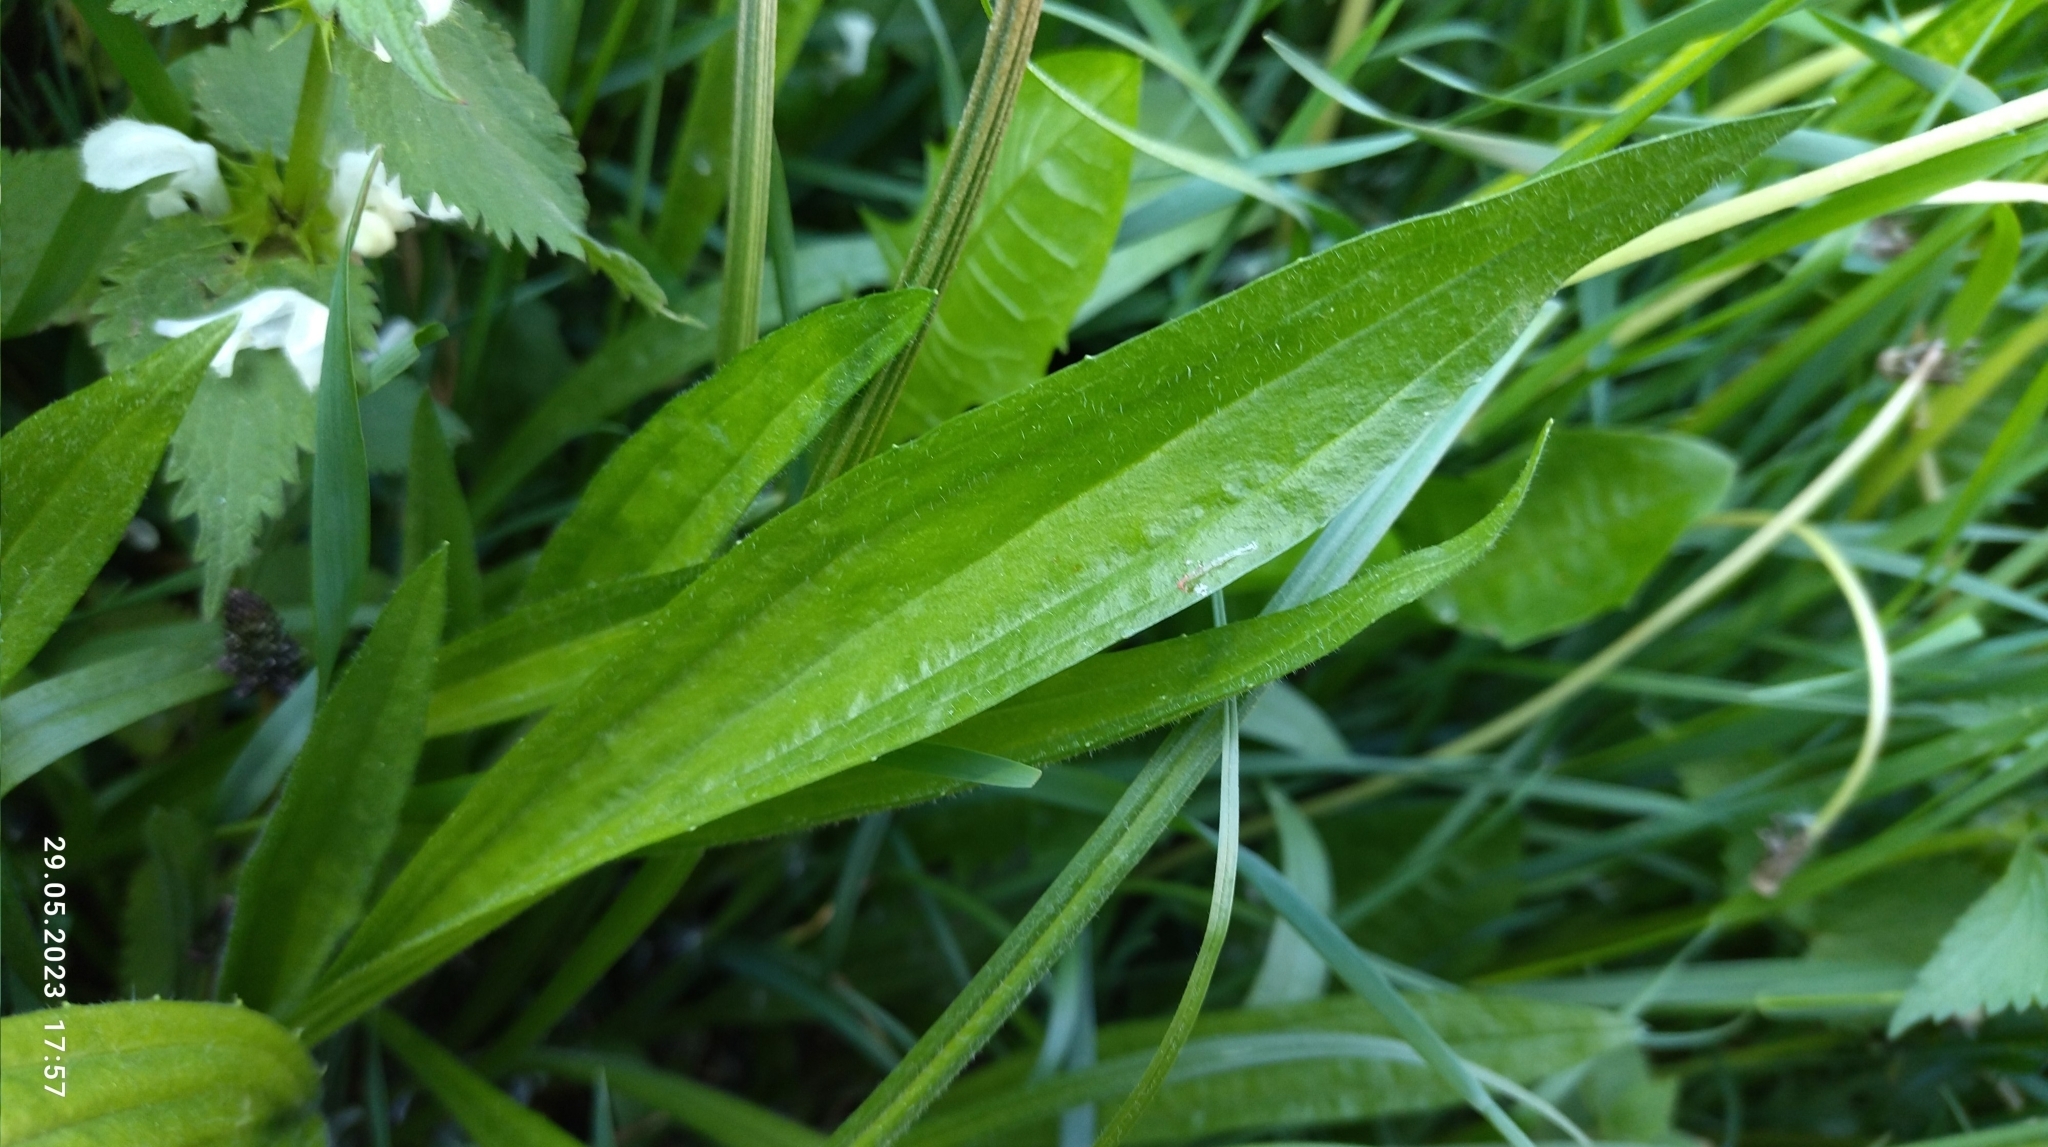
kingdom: Plantae
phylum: Tracheophyta
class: Magnoliopsida
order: Lamiales
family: Plantaginaceae
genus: Plantago
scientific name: Plantago lanceolata
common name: Ribwort plantain
